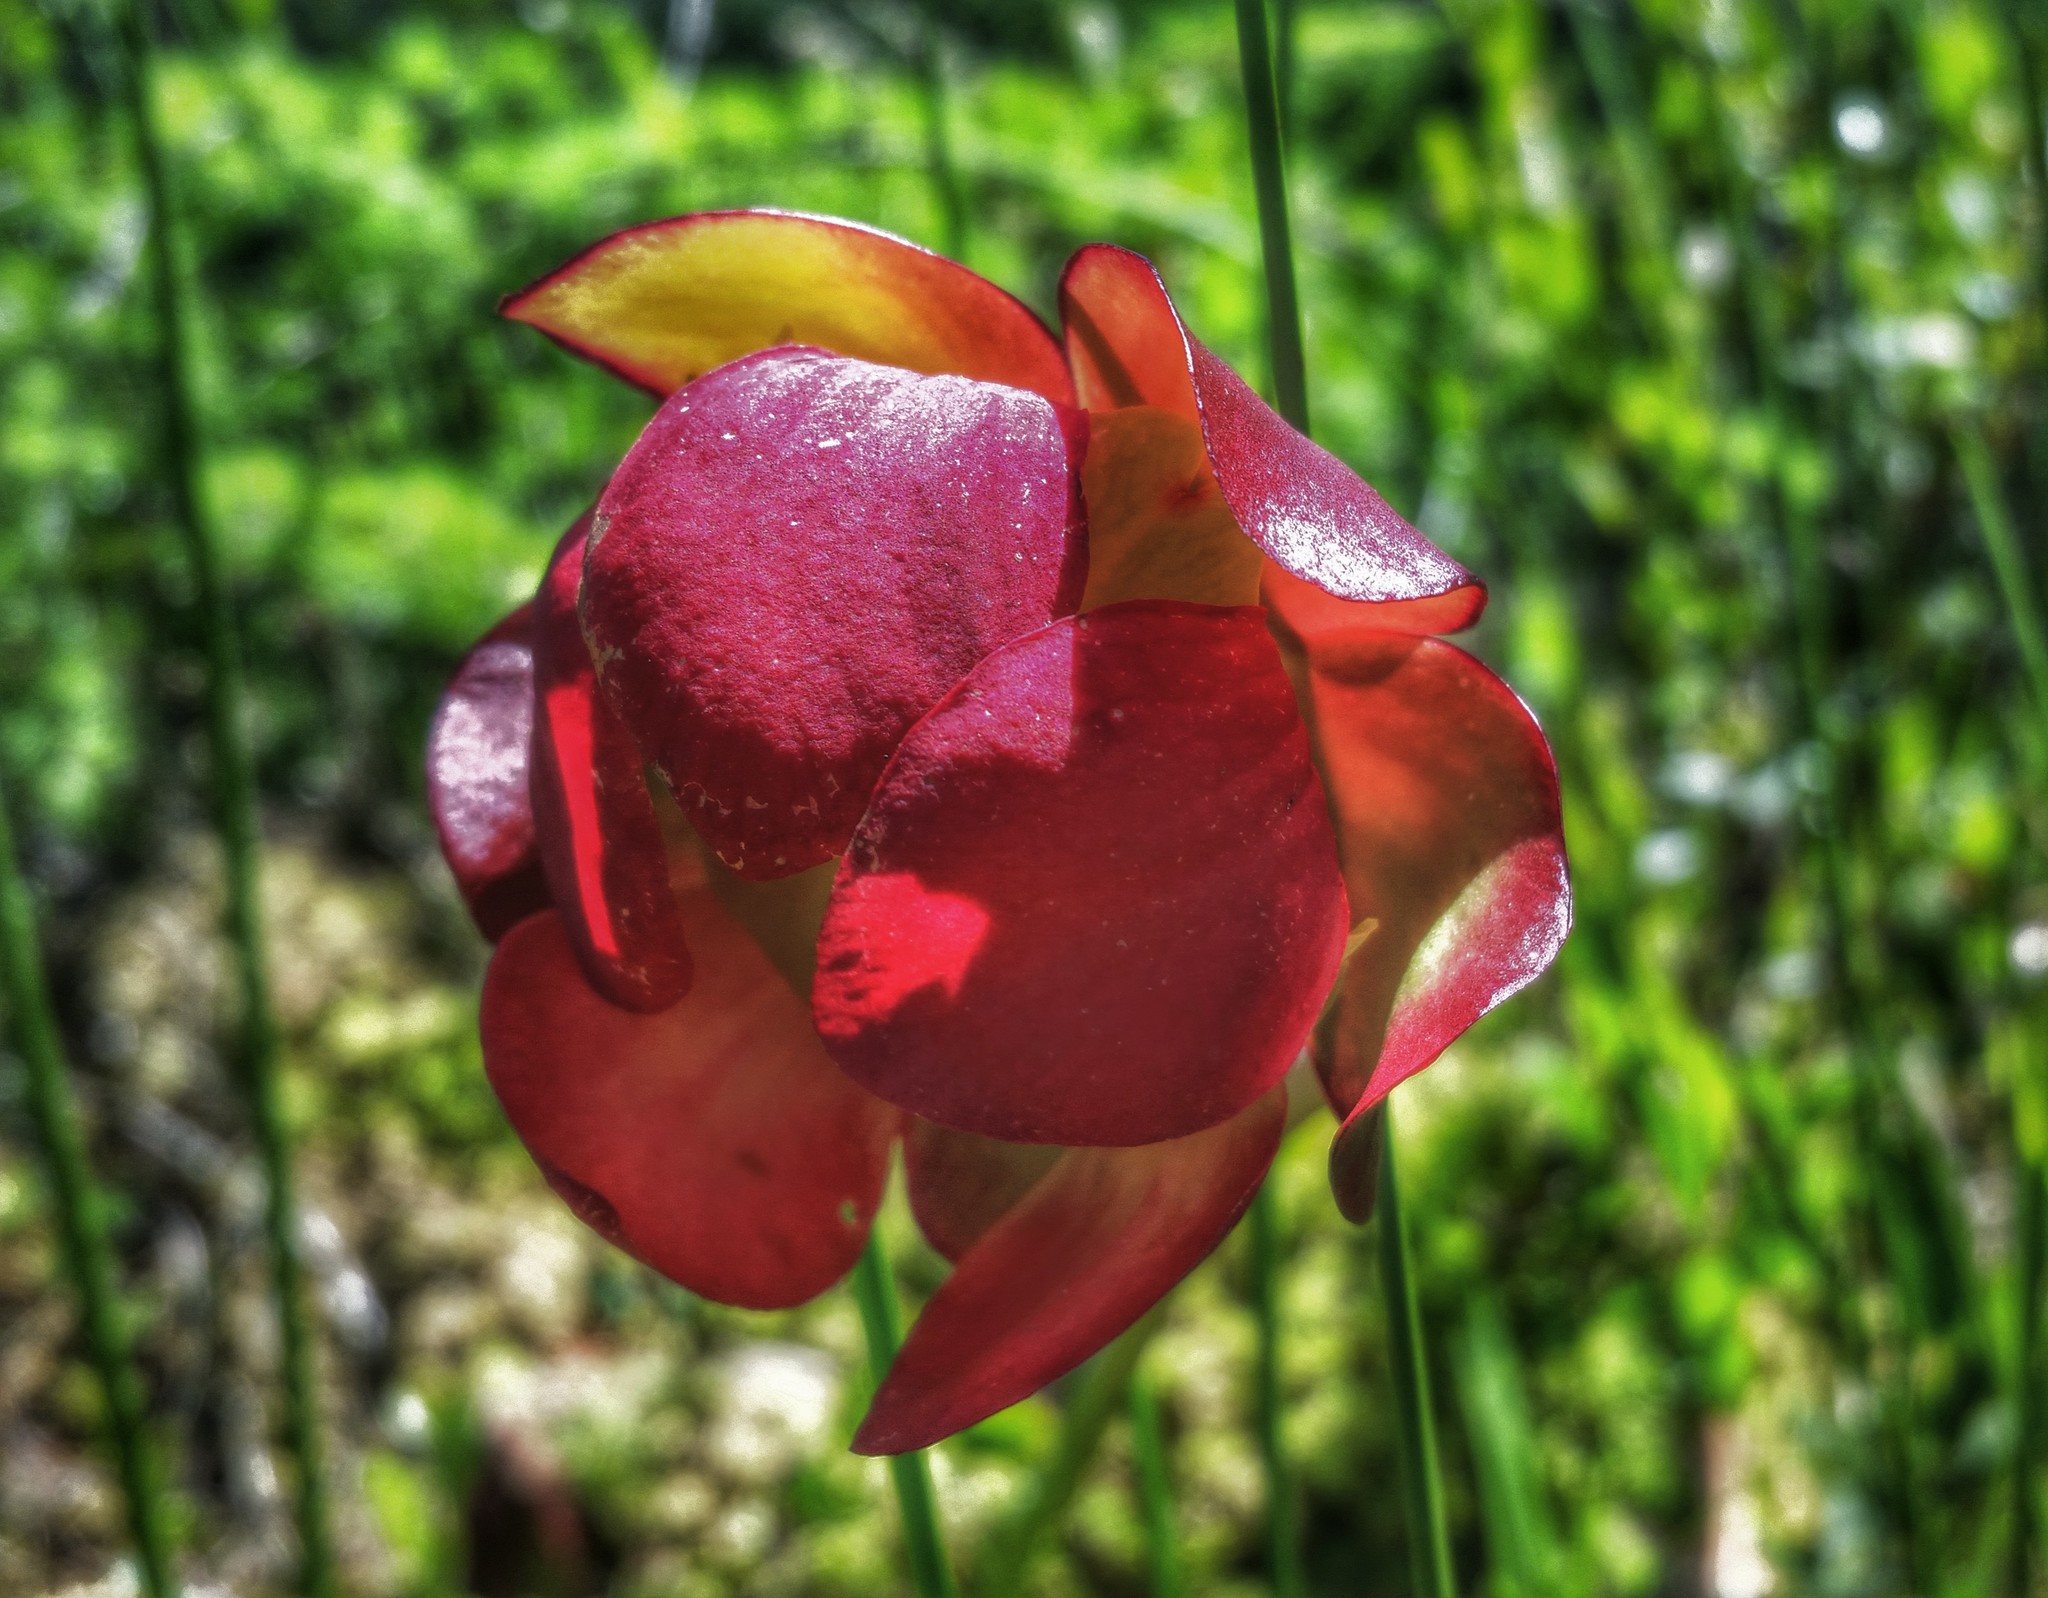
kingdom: Plantae
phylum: Tracheophyta
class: Magnoliopsida
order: Ericales
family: Sarraceniaceae
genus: Sarracenia
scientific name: Sarracenia purpurea
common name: Pitcherplant
